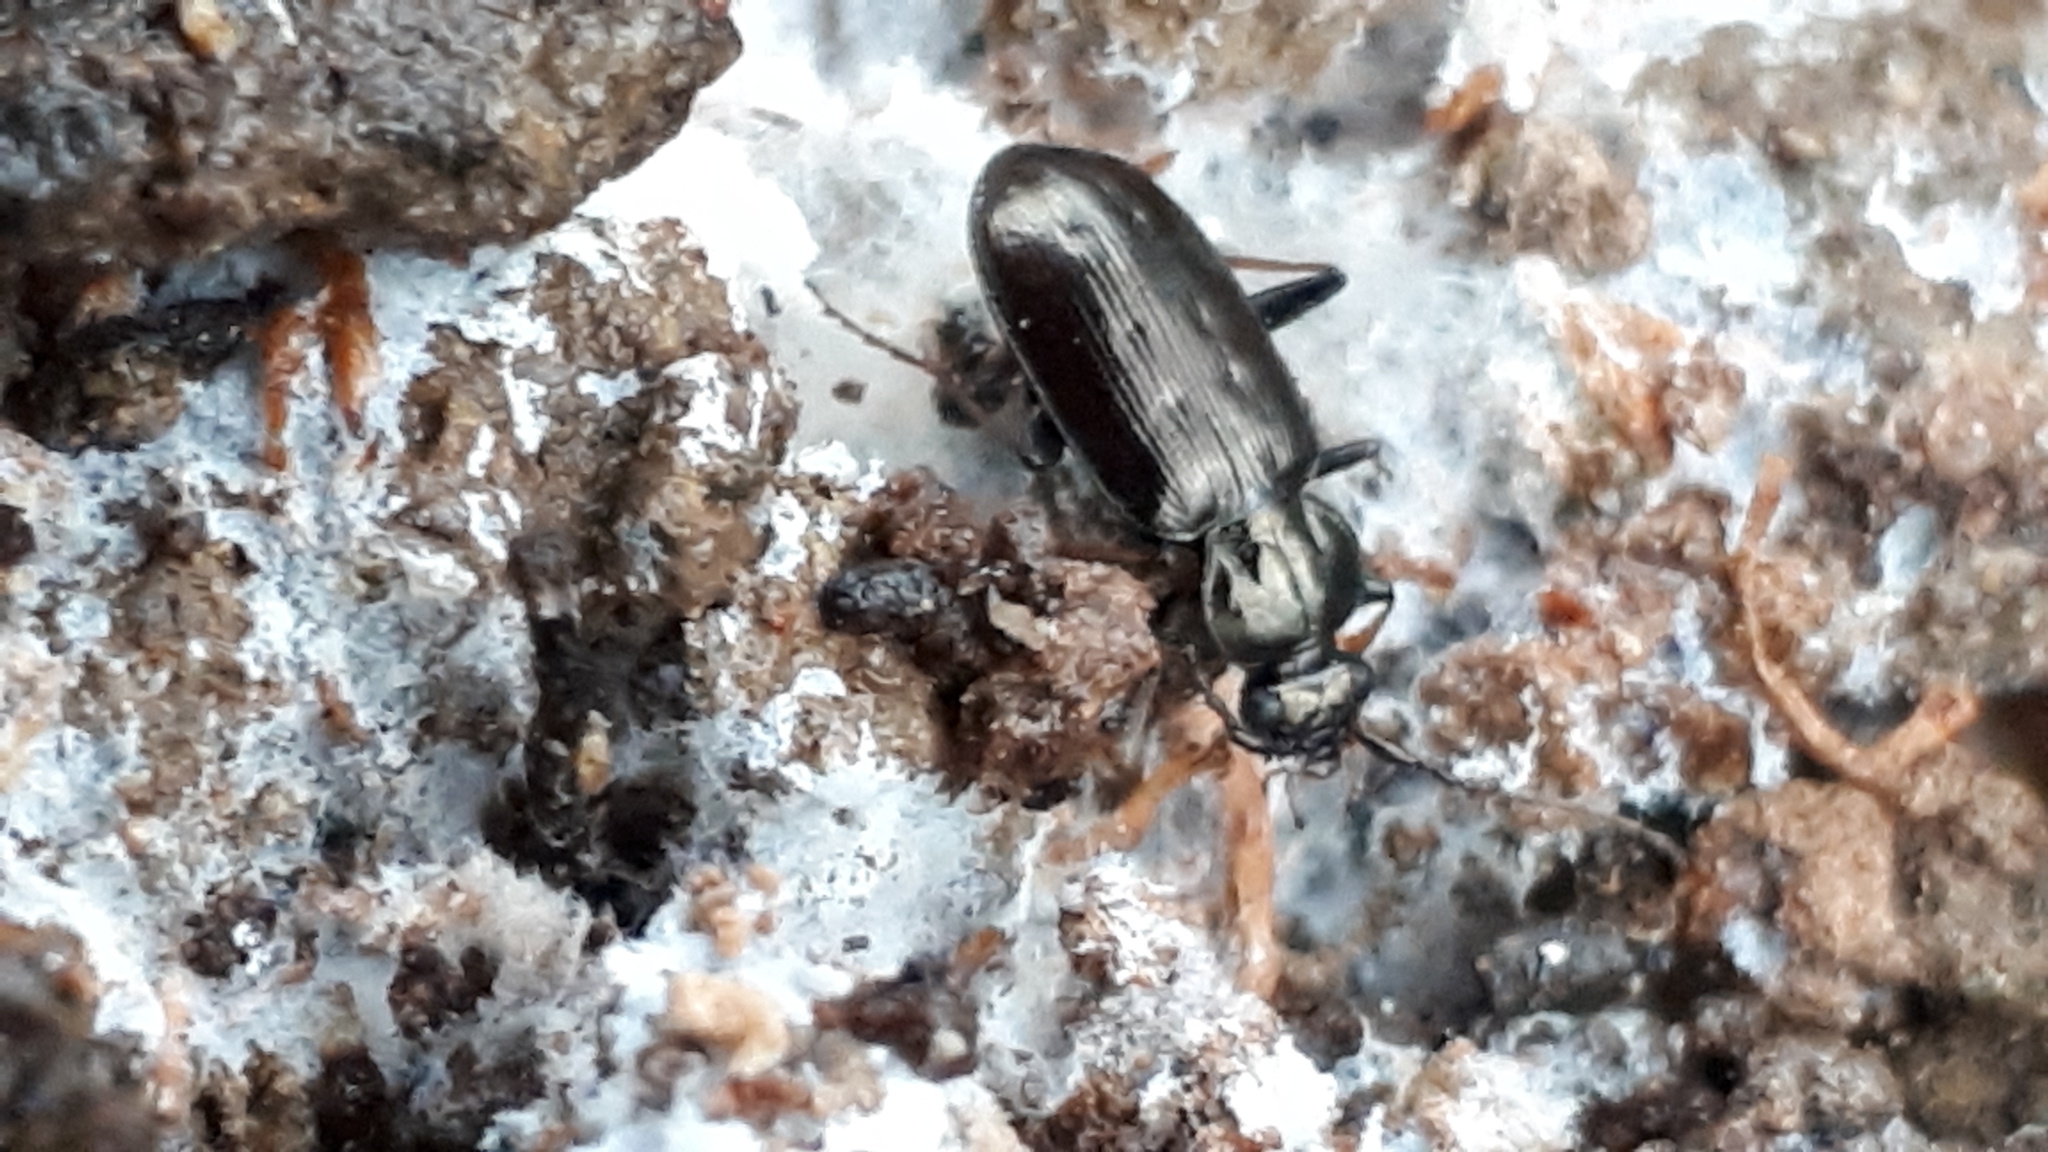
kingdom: Animalia
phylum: Arthropoda
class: Insecta
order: Coleoptera
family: Carabidae
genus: Loricera
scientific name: Loricera pilicornis
